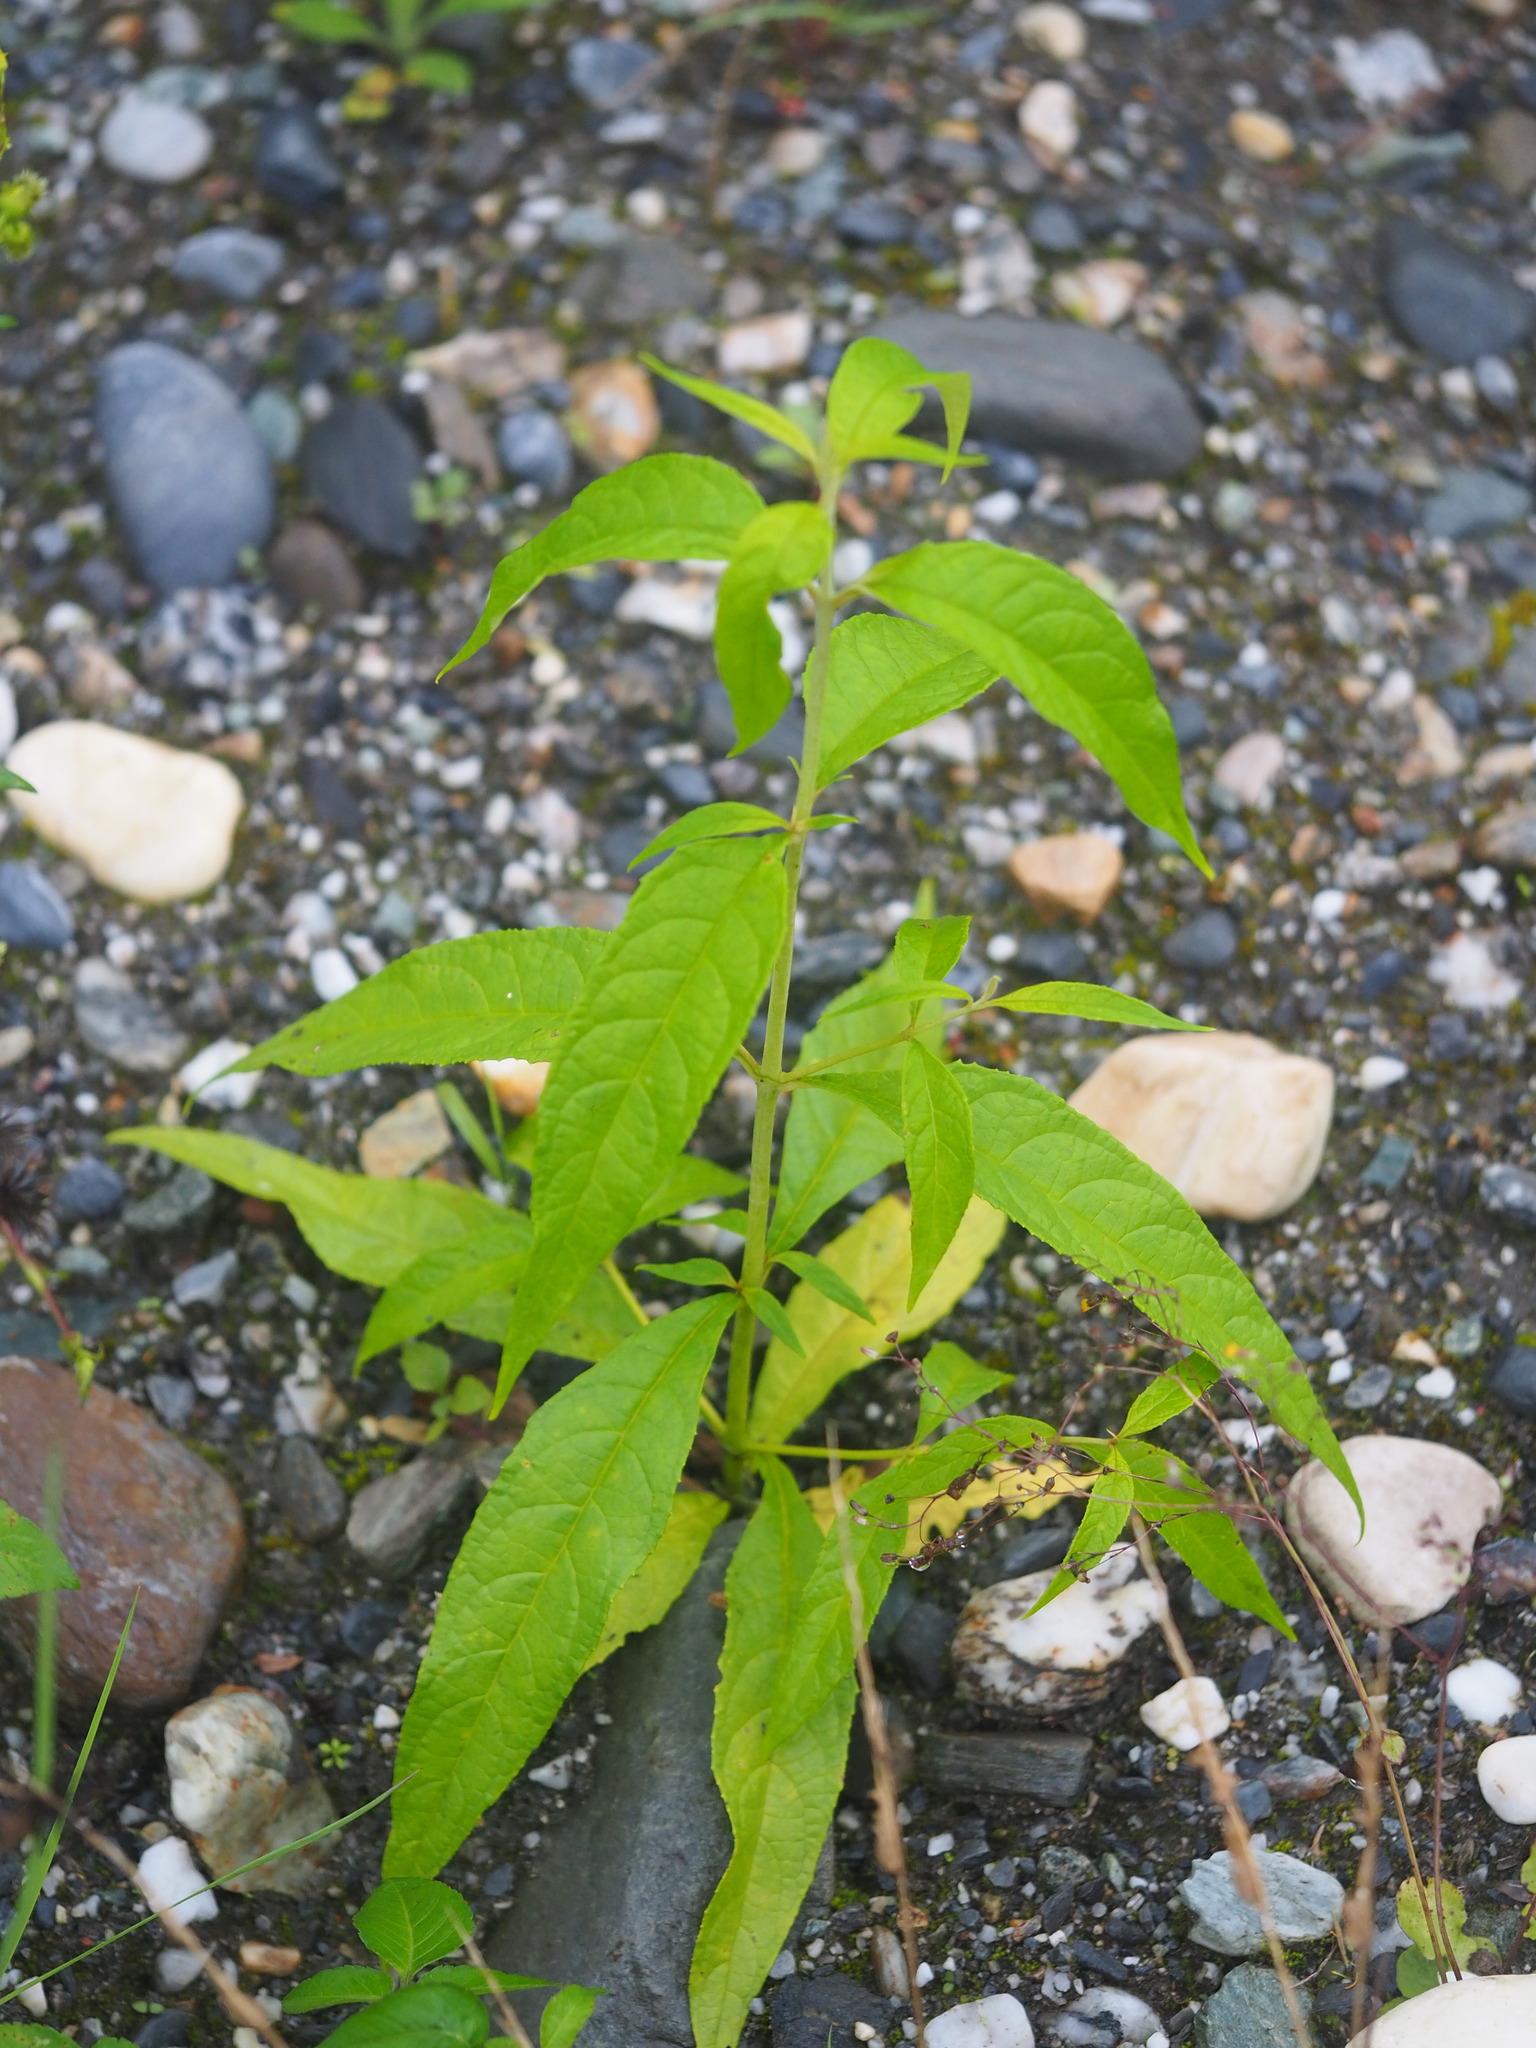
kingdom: Plantae
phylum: Tracheophyta
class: Magnoliopsida
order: Lamiales
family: Scrophulariaceae
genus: Buddleja
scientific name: Buddleja asiatica
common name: Dog tail
